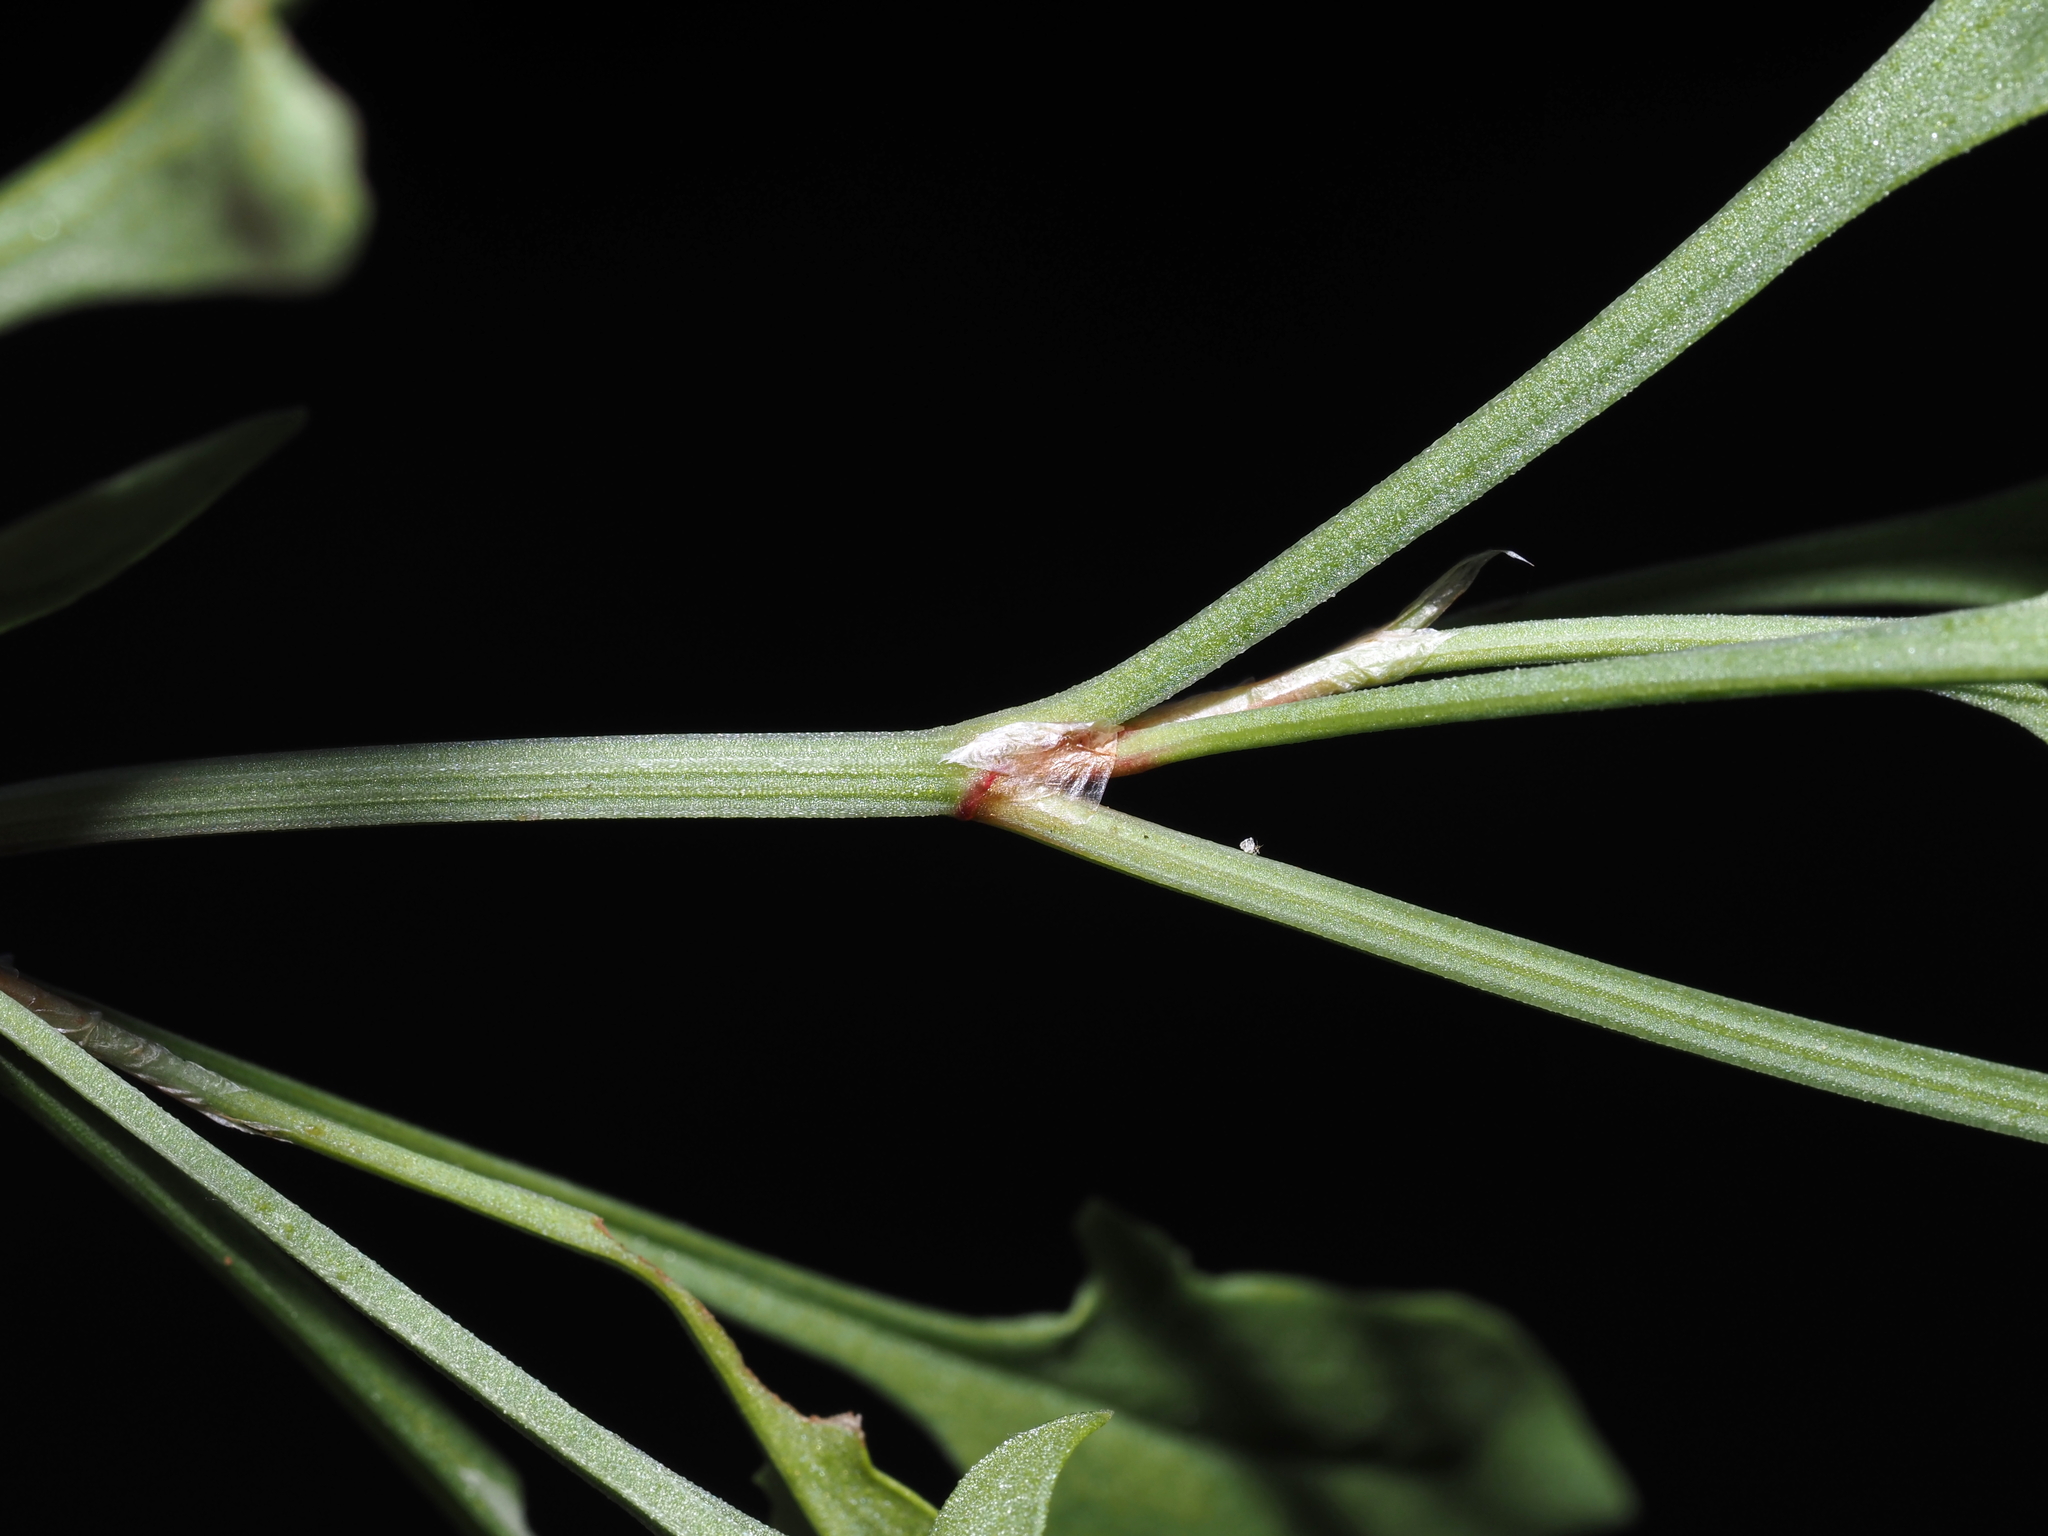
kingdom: Plantae
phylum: Tracheophyta
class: Magnoliopsida
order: Caryophyllales
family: Polygonaceae
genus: Rumex
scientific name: Rumex acetosella
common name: Common sheep sorrel
